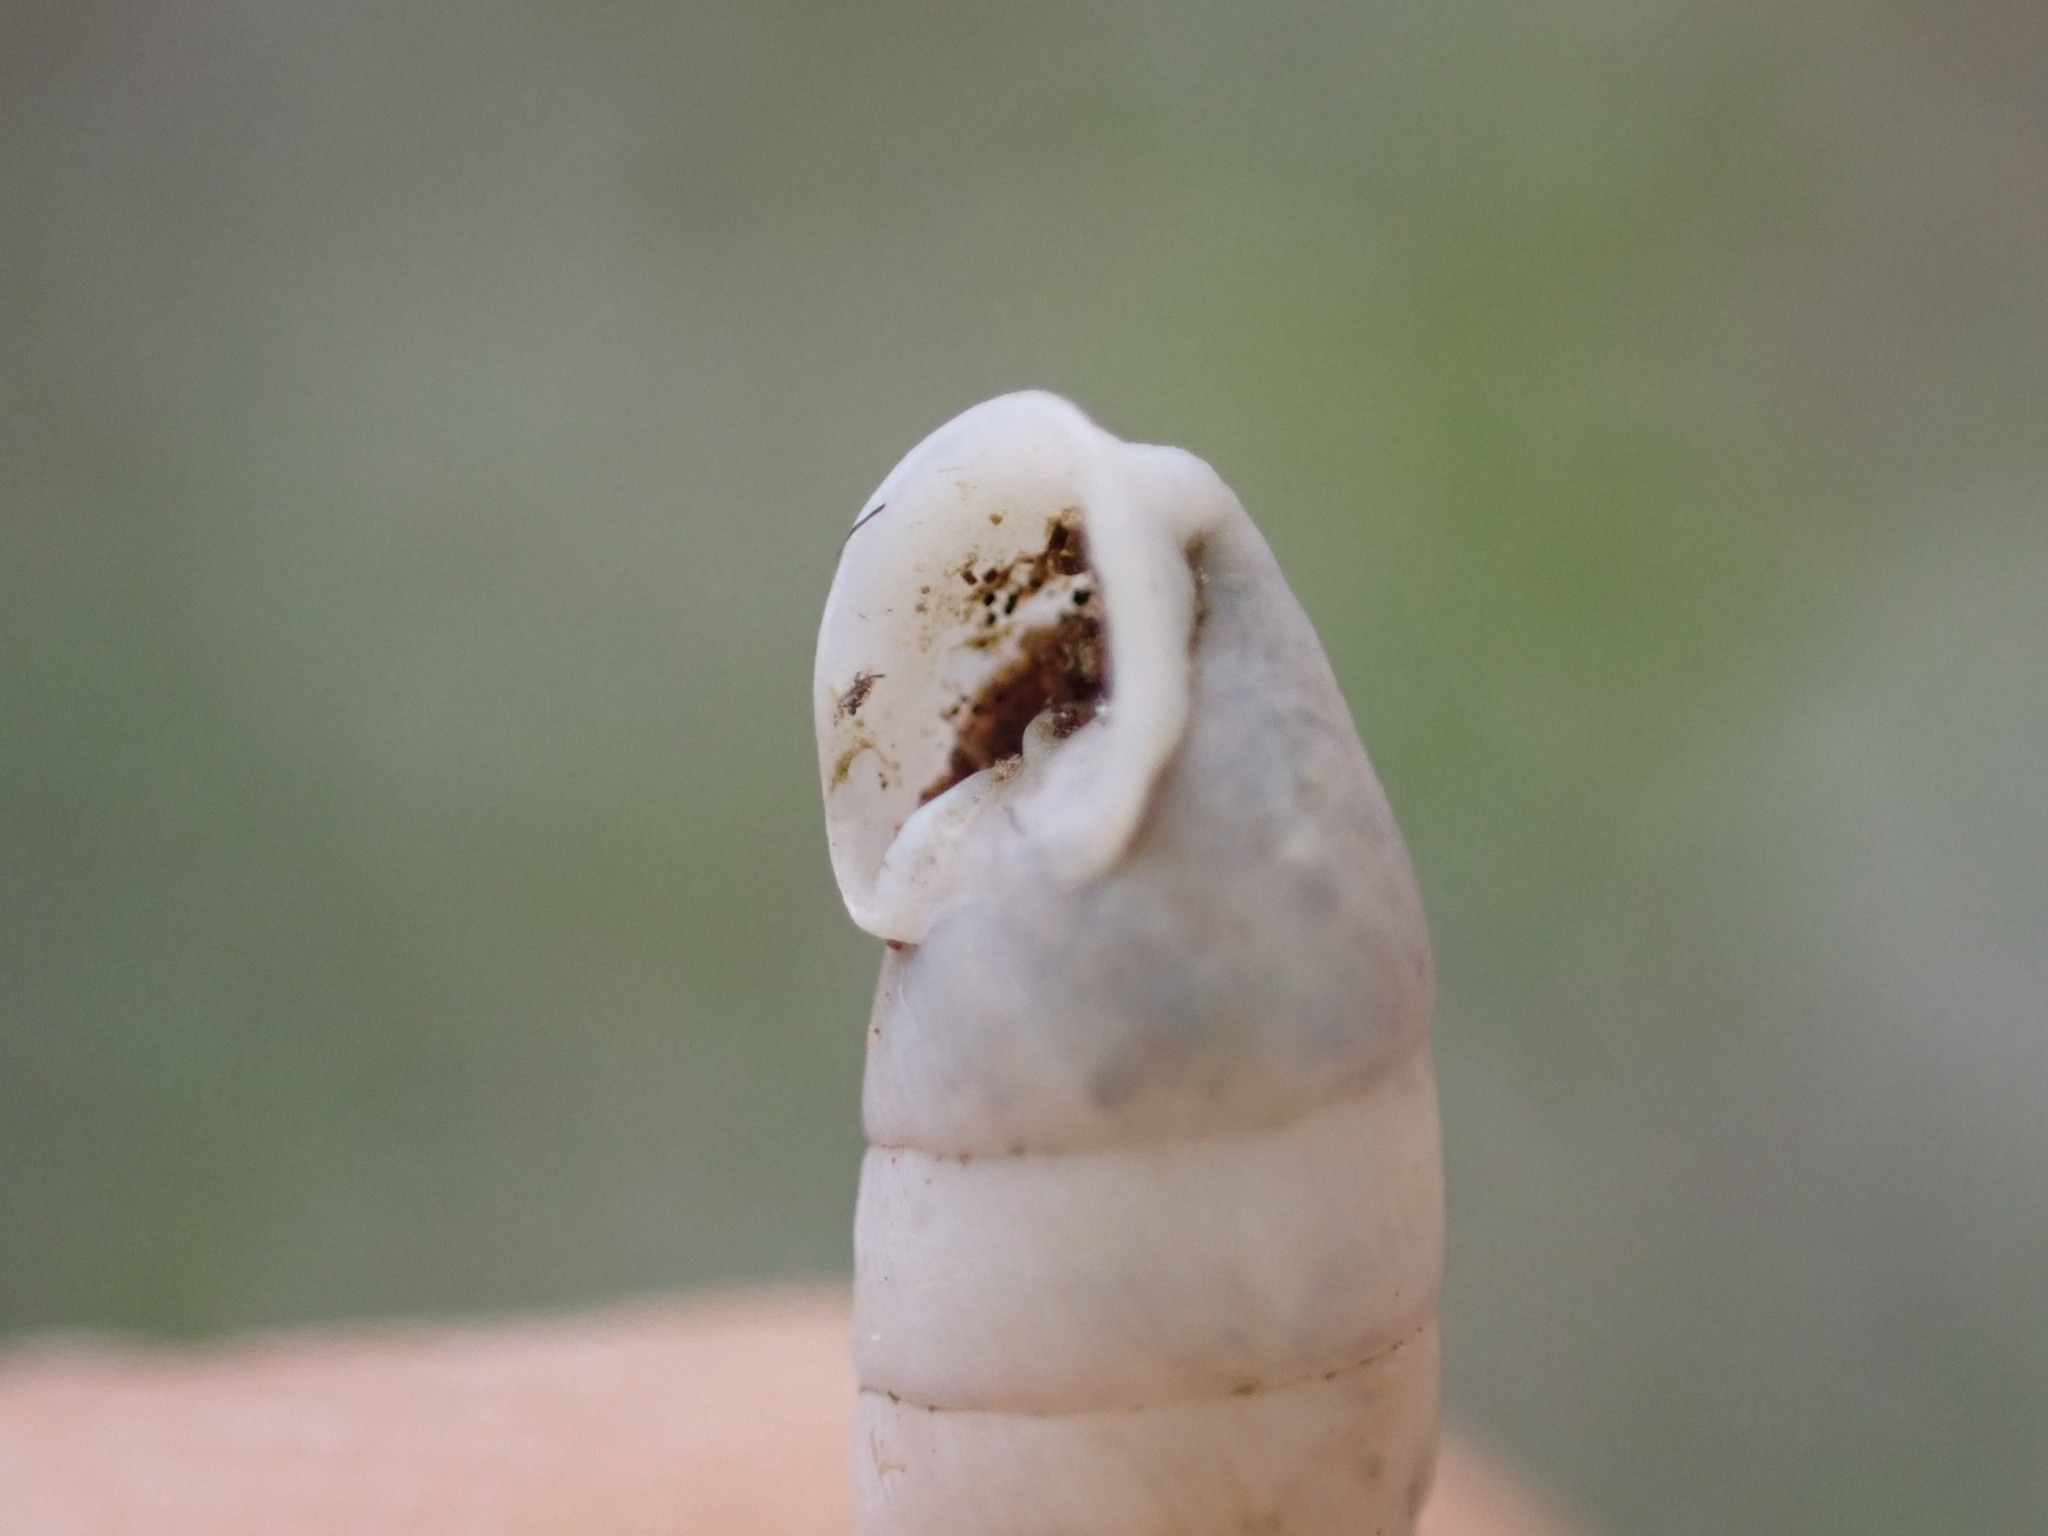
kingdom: Animalia
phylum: Mollusca
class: Gastropoda
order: Stylommatophora
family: Chondrinidae
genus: Granaria
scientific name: Granaria variabilis
